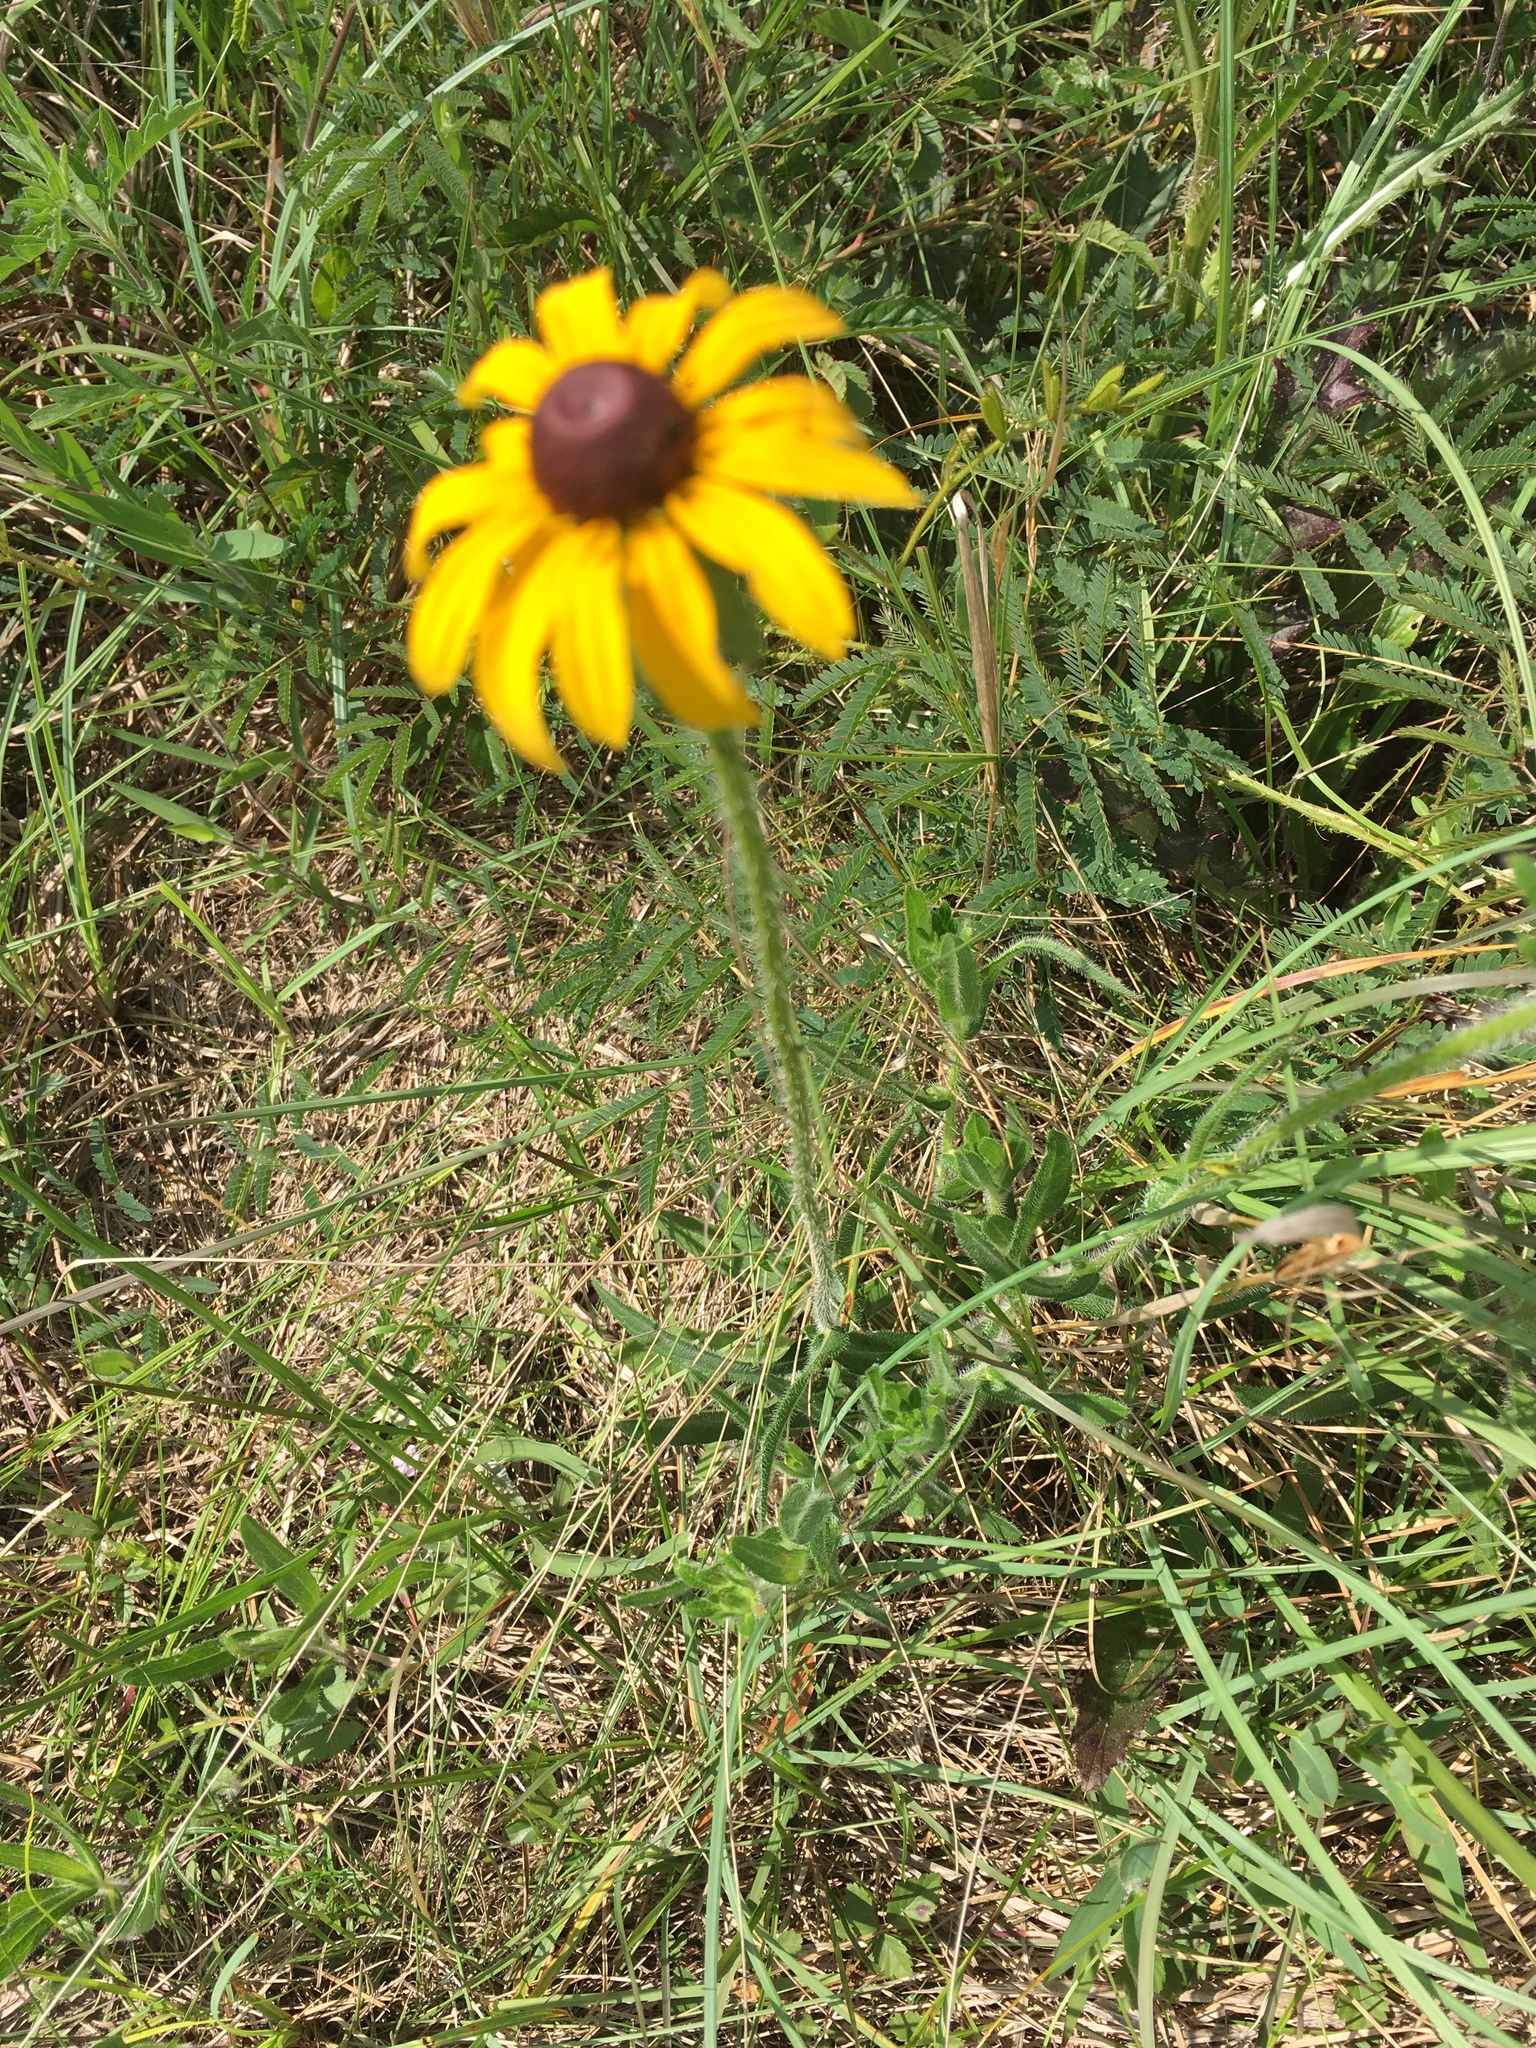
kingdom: Plantae
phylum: Tracheophyta
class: Magnoliopsida
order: Asterales
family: Asteraceae
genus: Rudbeckia
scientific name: Rudbeckia hirta
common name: Black-eyed-susan
